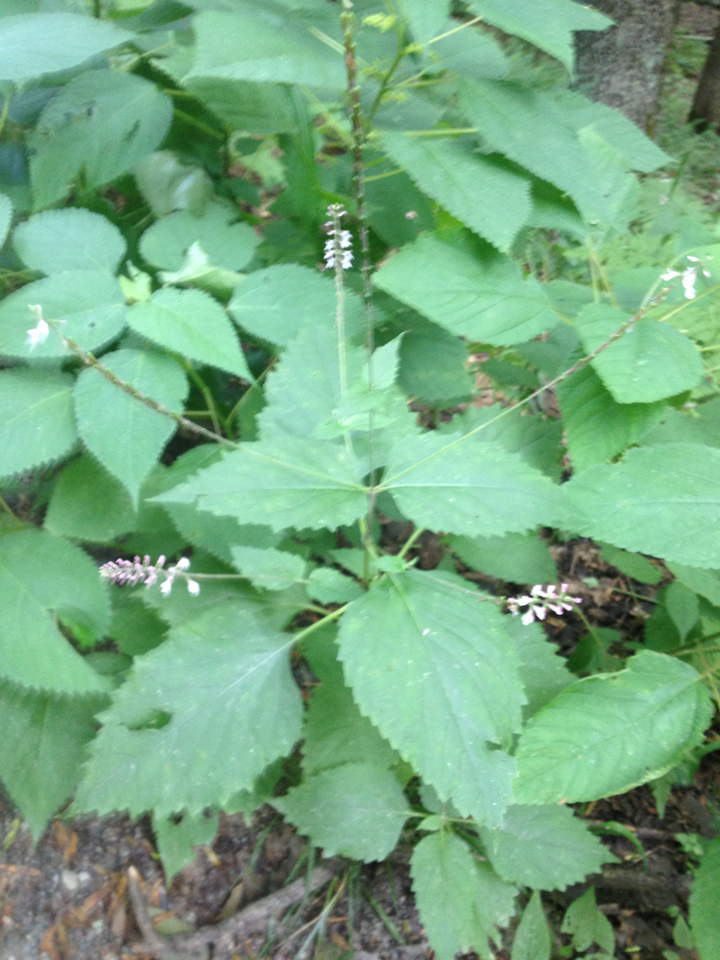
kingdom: Plantae
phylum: Tracheophyta
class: Magnoliopsida
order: Lamiales
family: Phrymaceae
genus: Phryma
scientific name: Phryma leptostachya
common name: American lopseed
